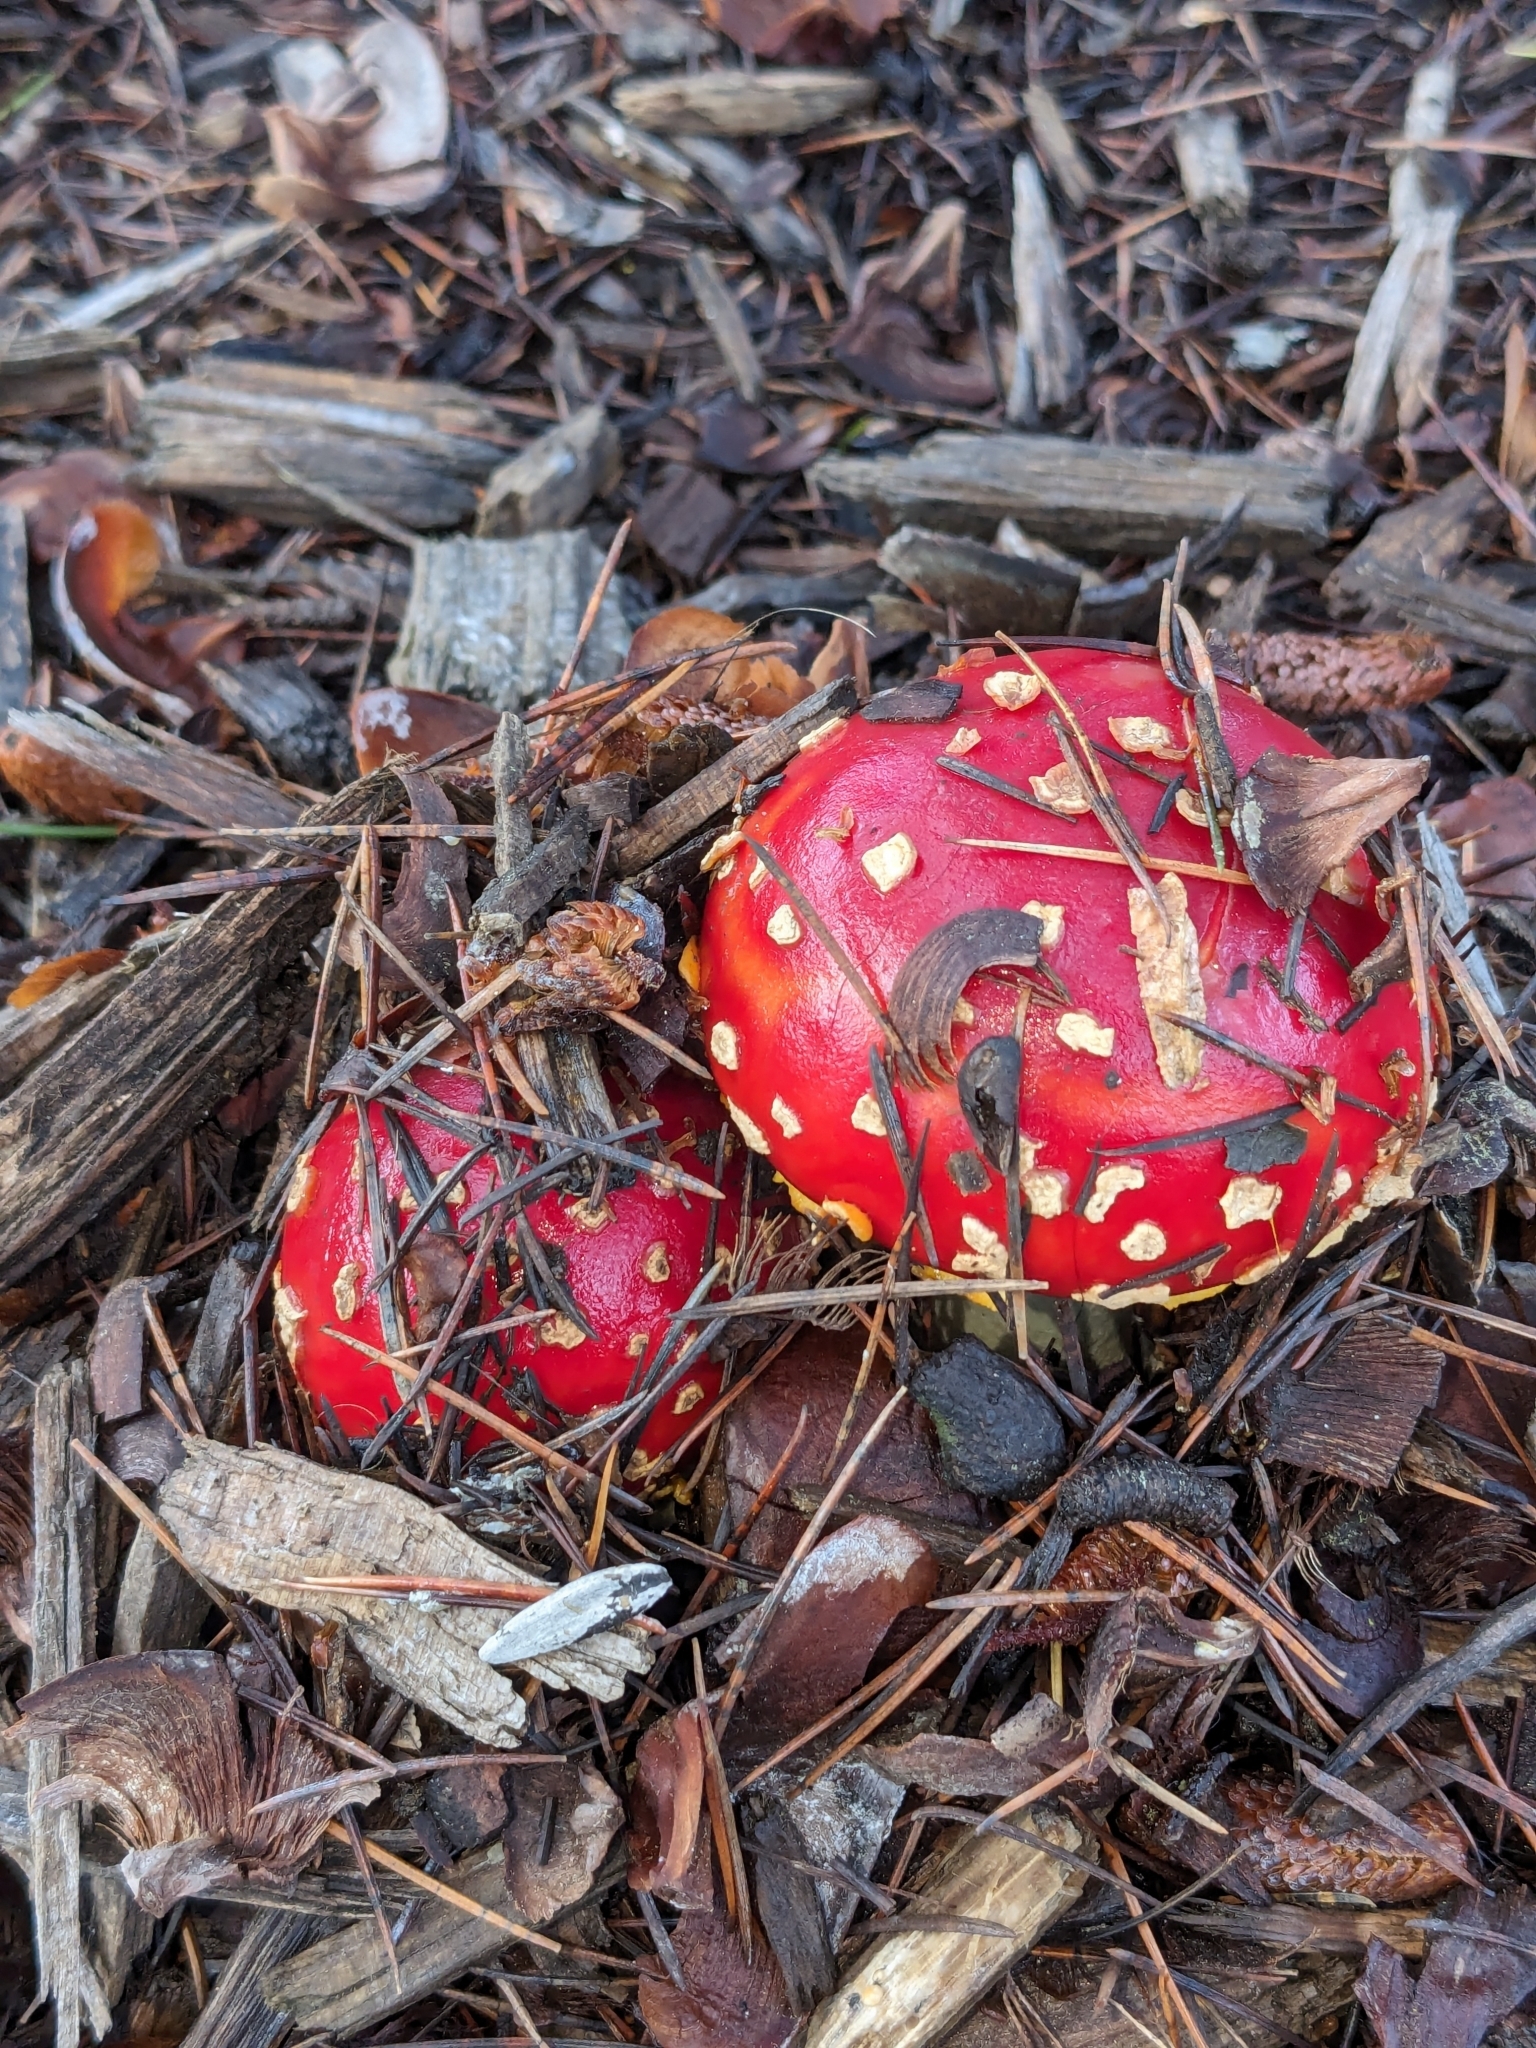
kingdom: Fungi
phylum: Basidiomycota
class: Agaricomycetes
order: Agaricales
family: Amanitaceae
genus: Amanita
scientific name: Amanita muscaria
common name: Fly agaric
